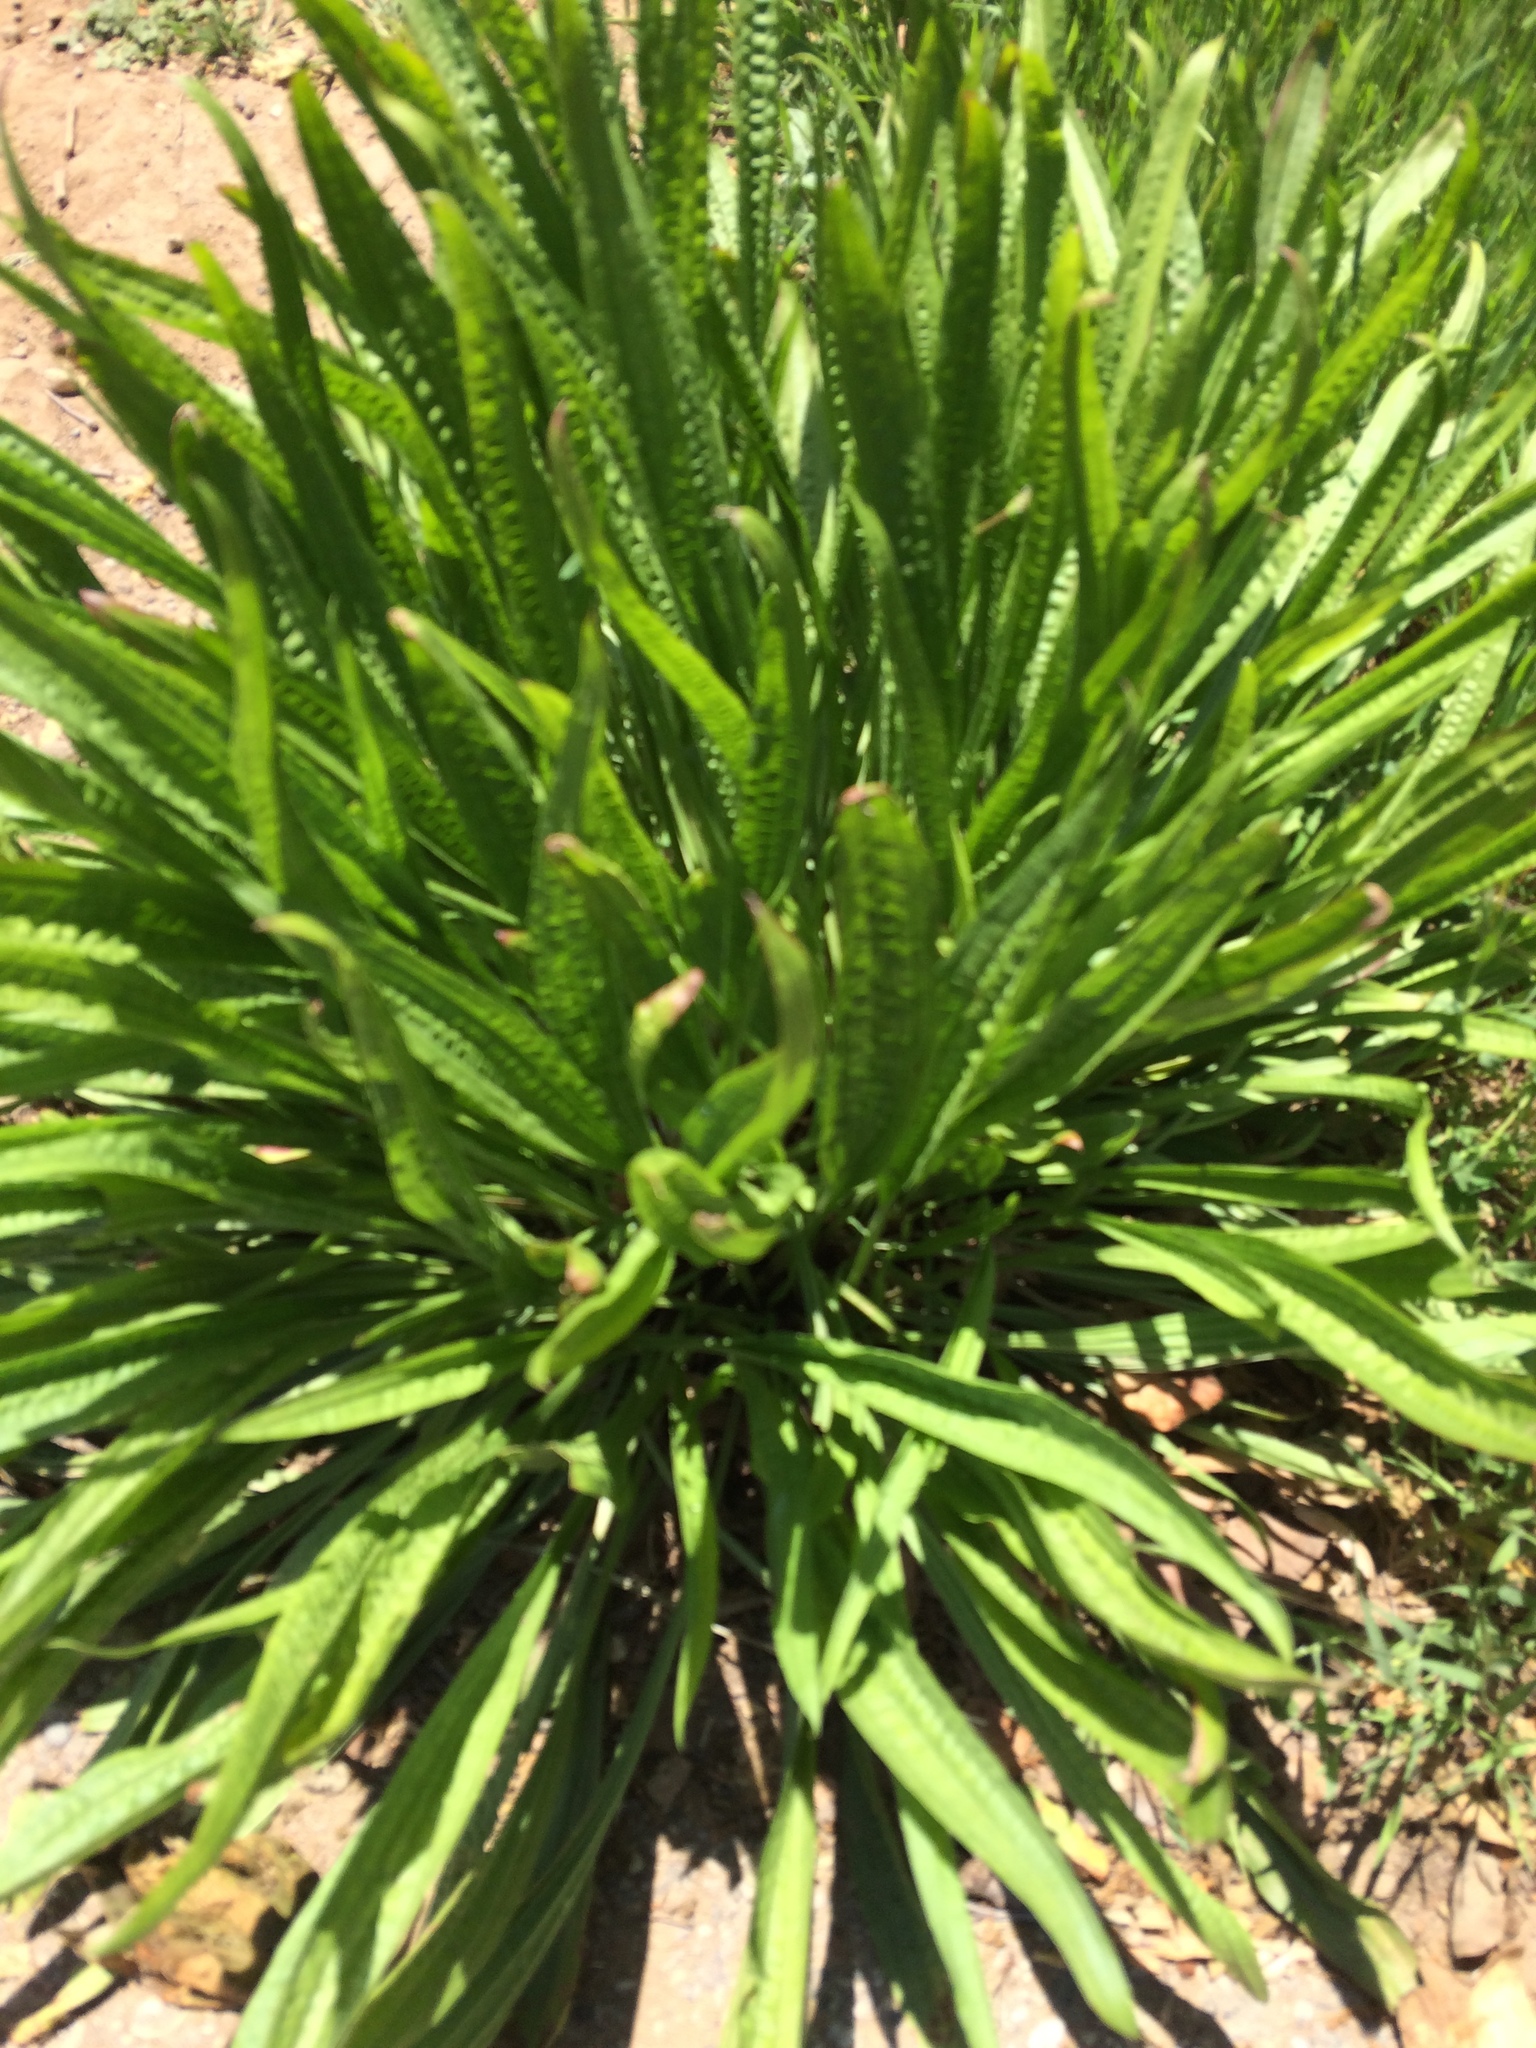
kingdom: Plantae
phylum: Tracheophyta
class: Magnoliopsida
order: Lamiales
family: Plantaginaceae
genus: Plantago
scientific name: Plantago lanceolata
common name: Ribwort plantain
